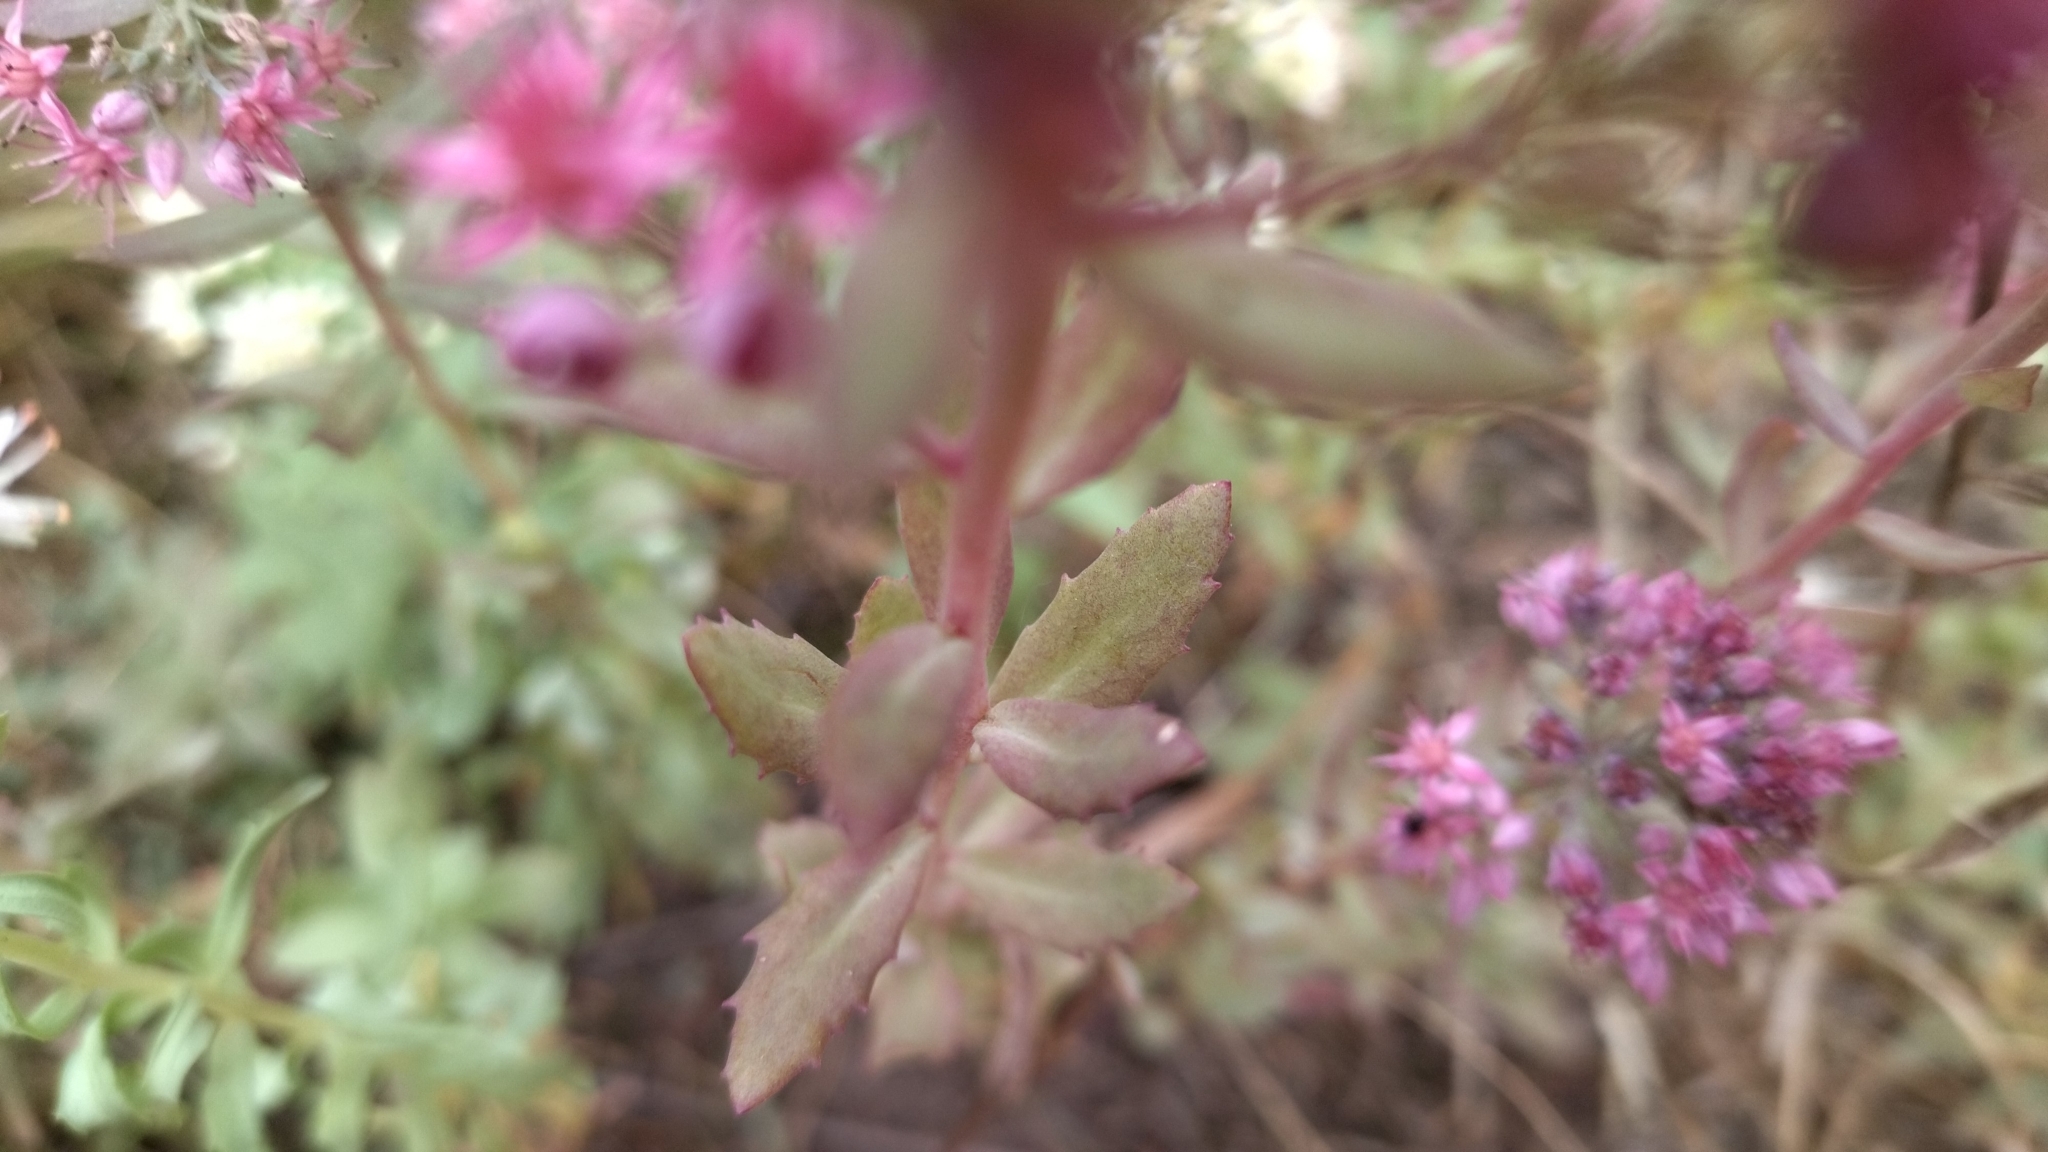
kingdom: Plantae
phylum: Tracheophyta
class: Magnoliopsida
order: Saxifragales
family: Crassulaceae
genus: Hylotelephium
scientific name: Hylotelephium telephium
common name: Live-forever
